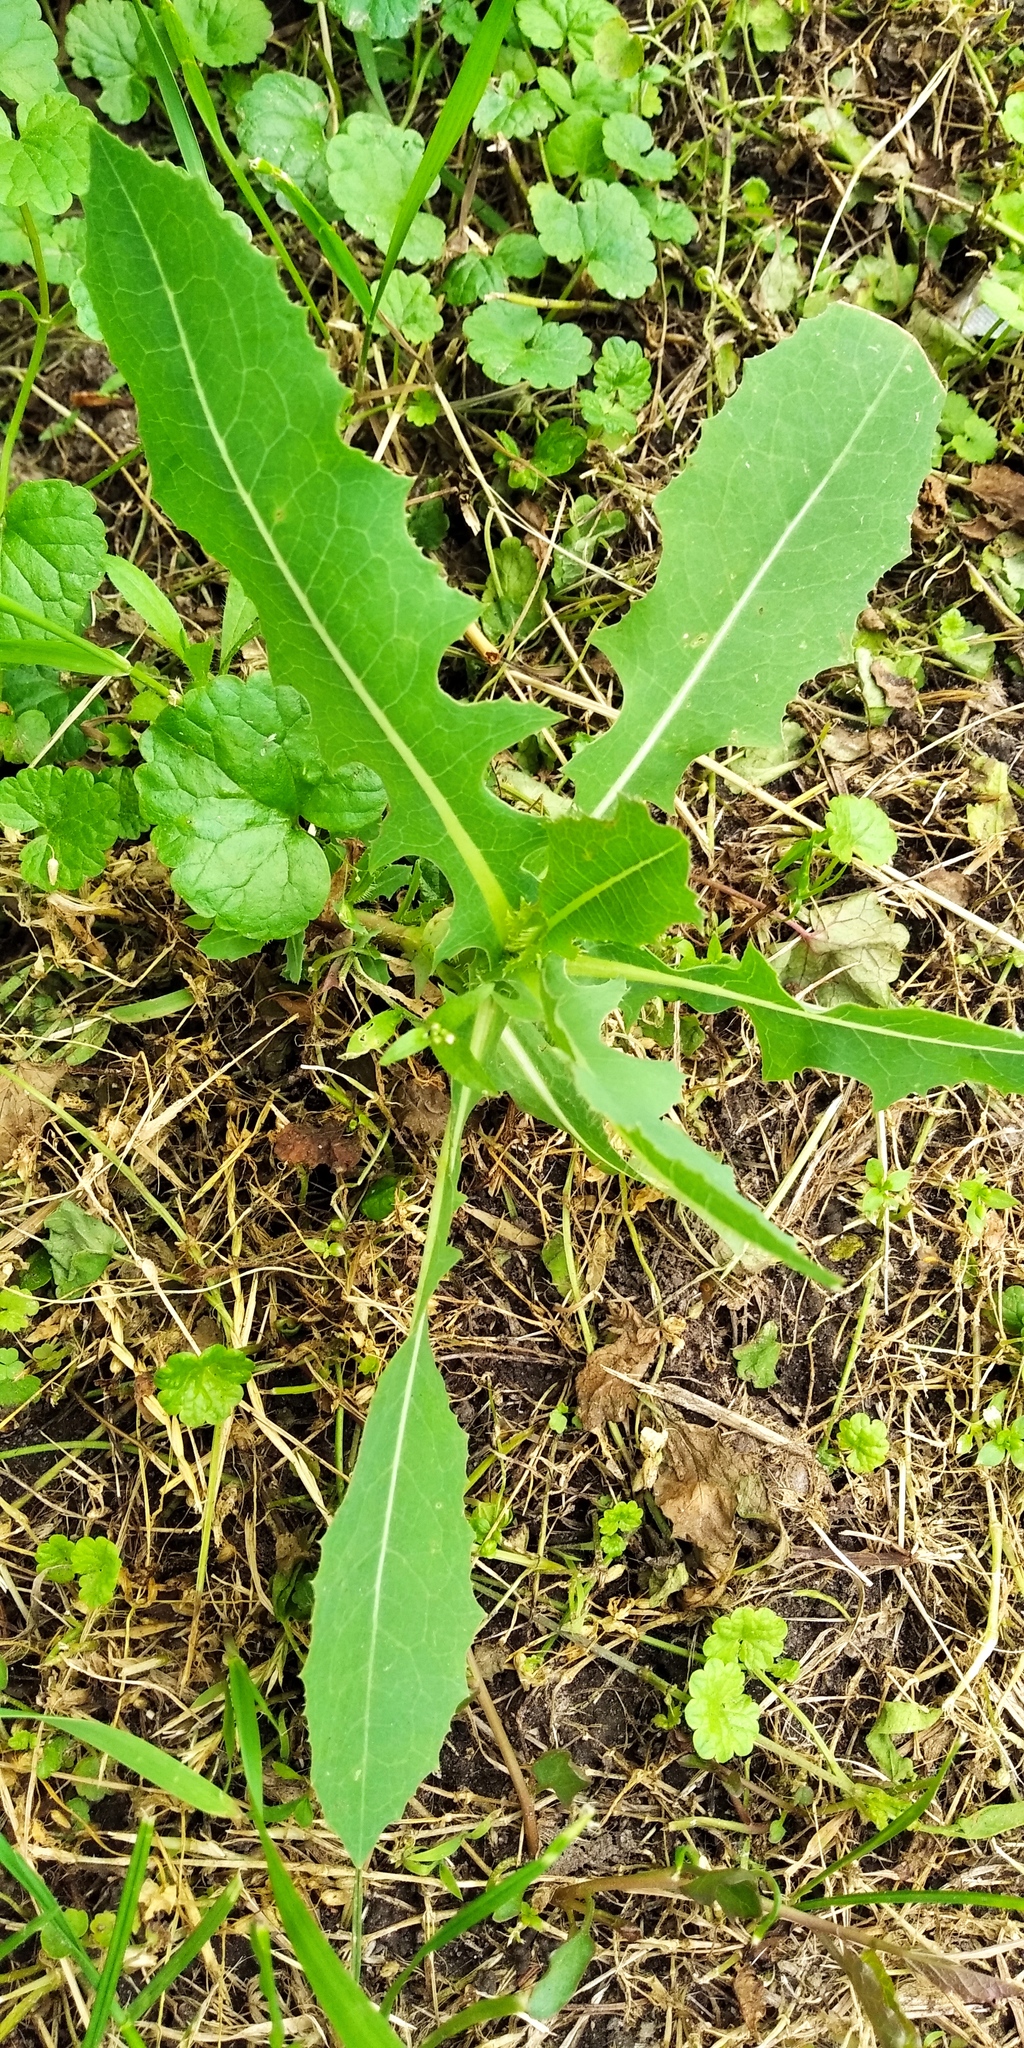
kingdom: Plantae
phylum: Tracheophyta
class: Magnoliopsida
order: Asterales
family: Asteraceae
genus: Lactuca
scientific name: Lactuca serriola
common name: Prickly lettuce
